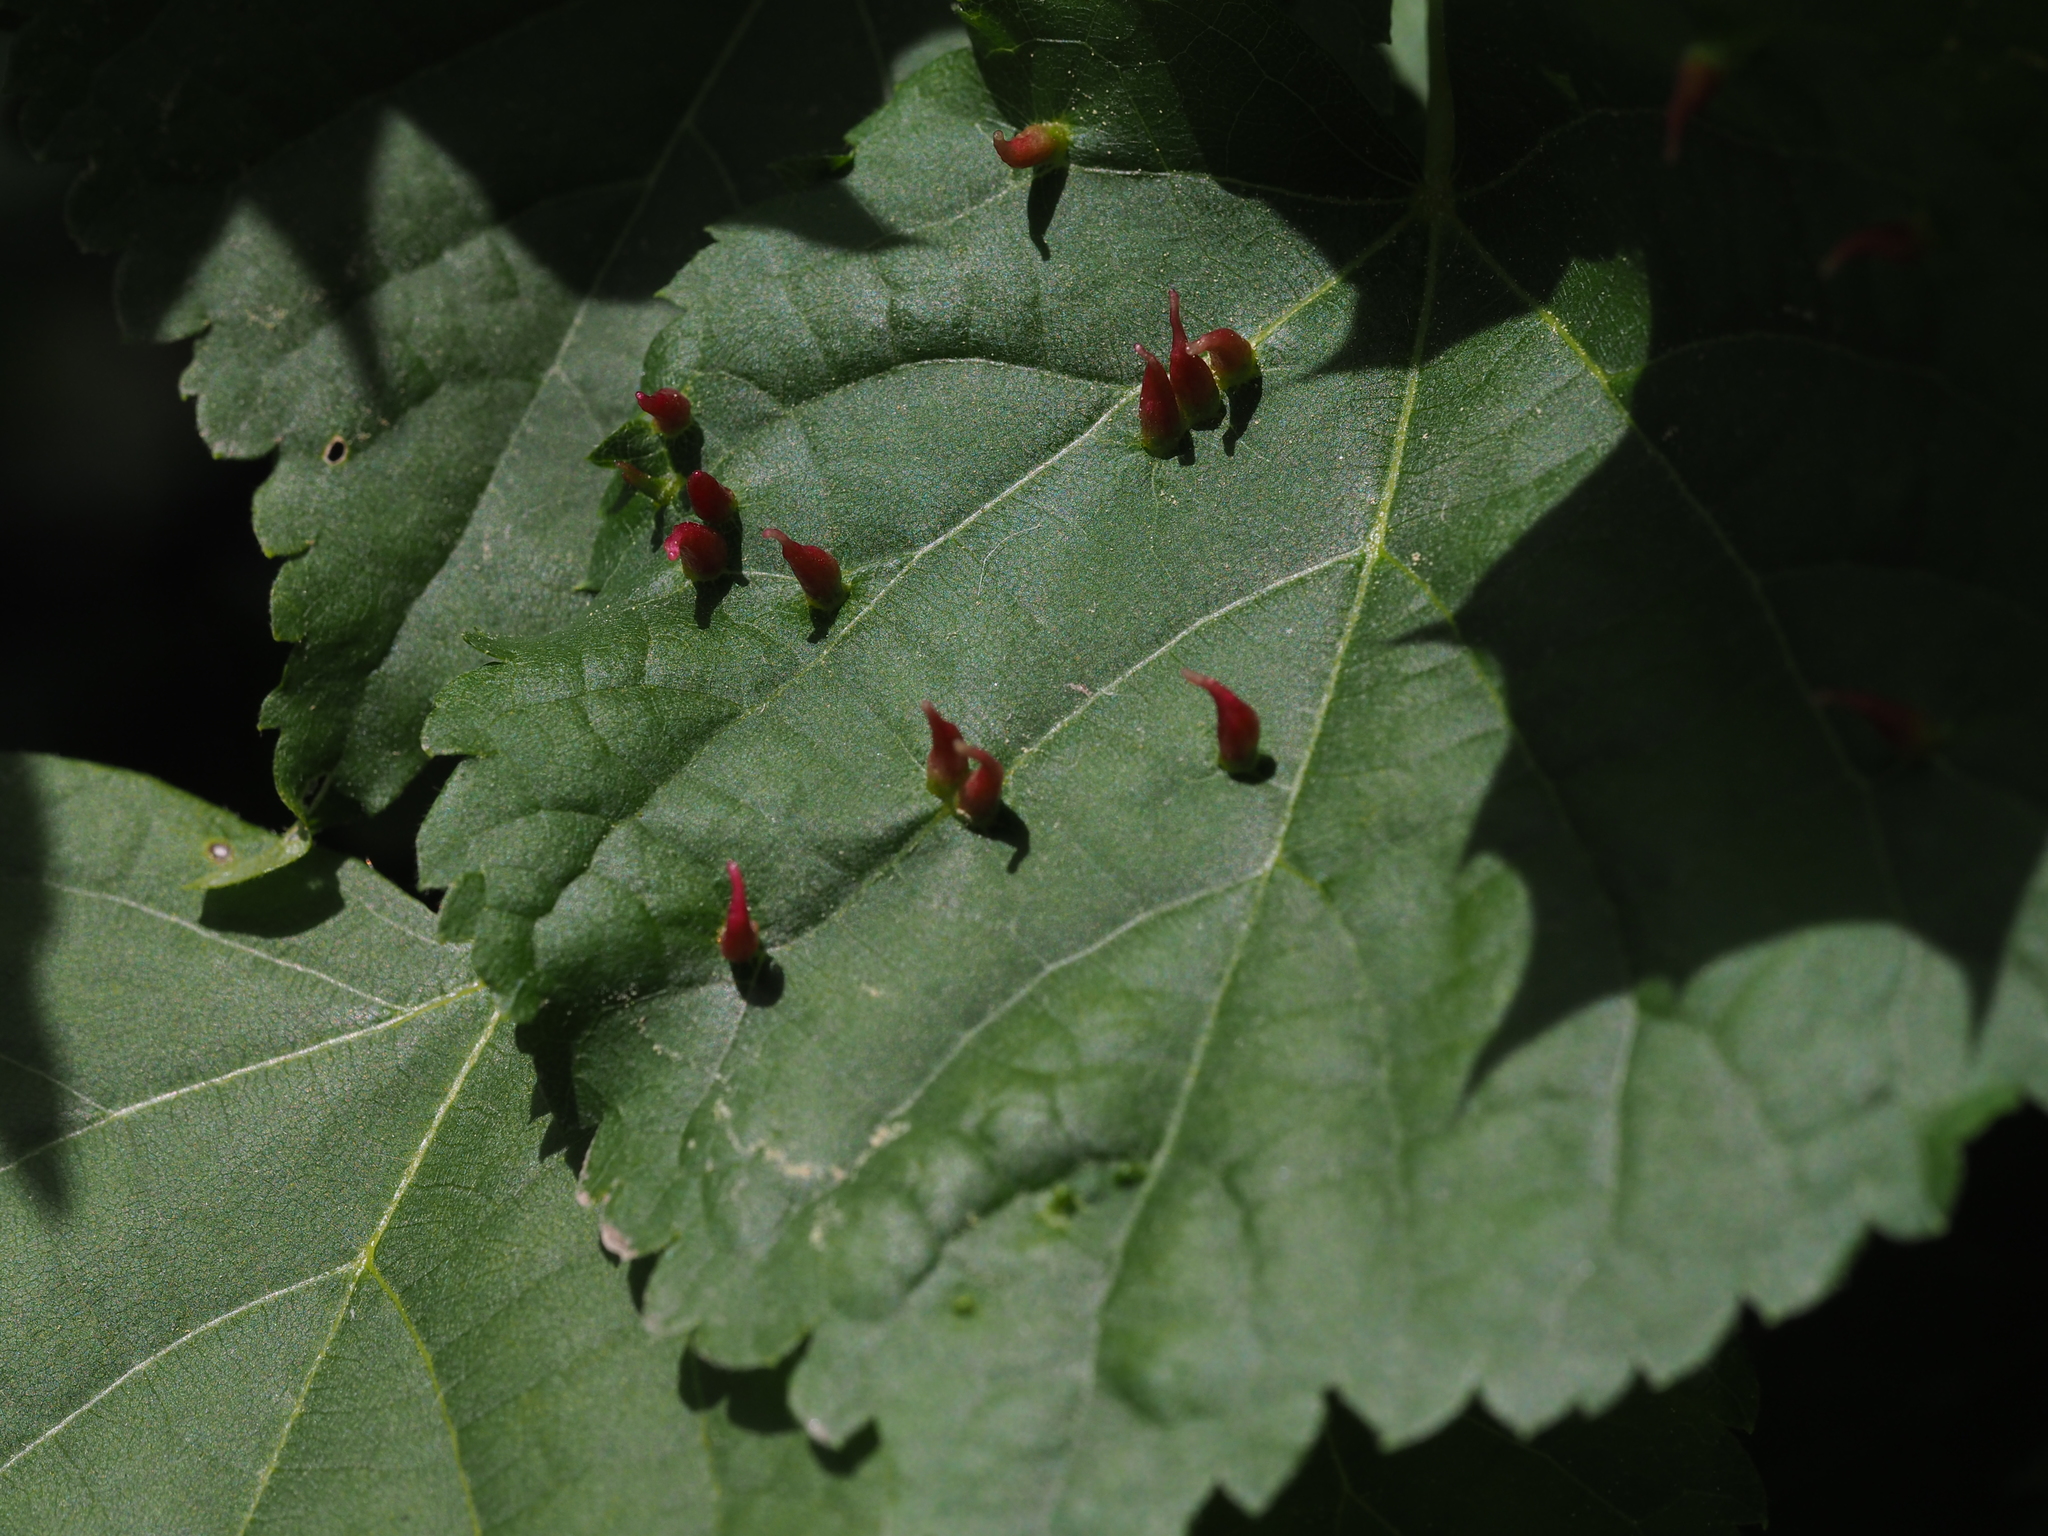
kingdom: Animalia
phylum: Arthropoda
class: Arachnida
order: Trombidiformes
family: Eriophyidae
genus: Eriophyes
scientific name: Eriophyes tiliae
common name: Red nail gall mite
